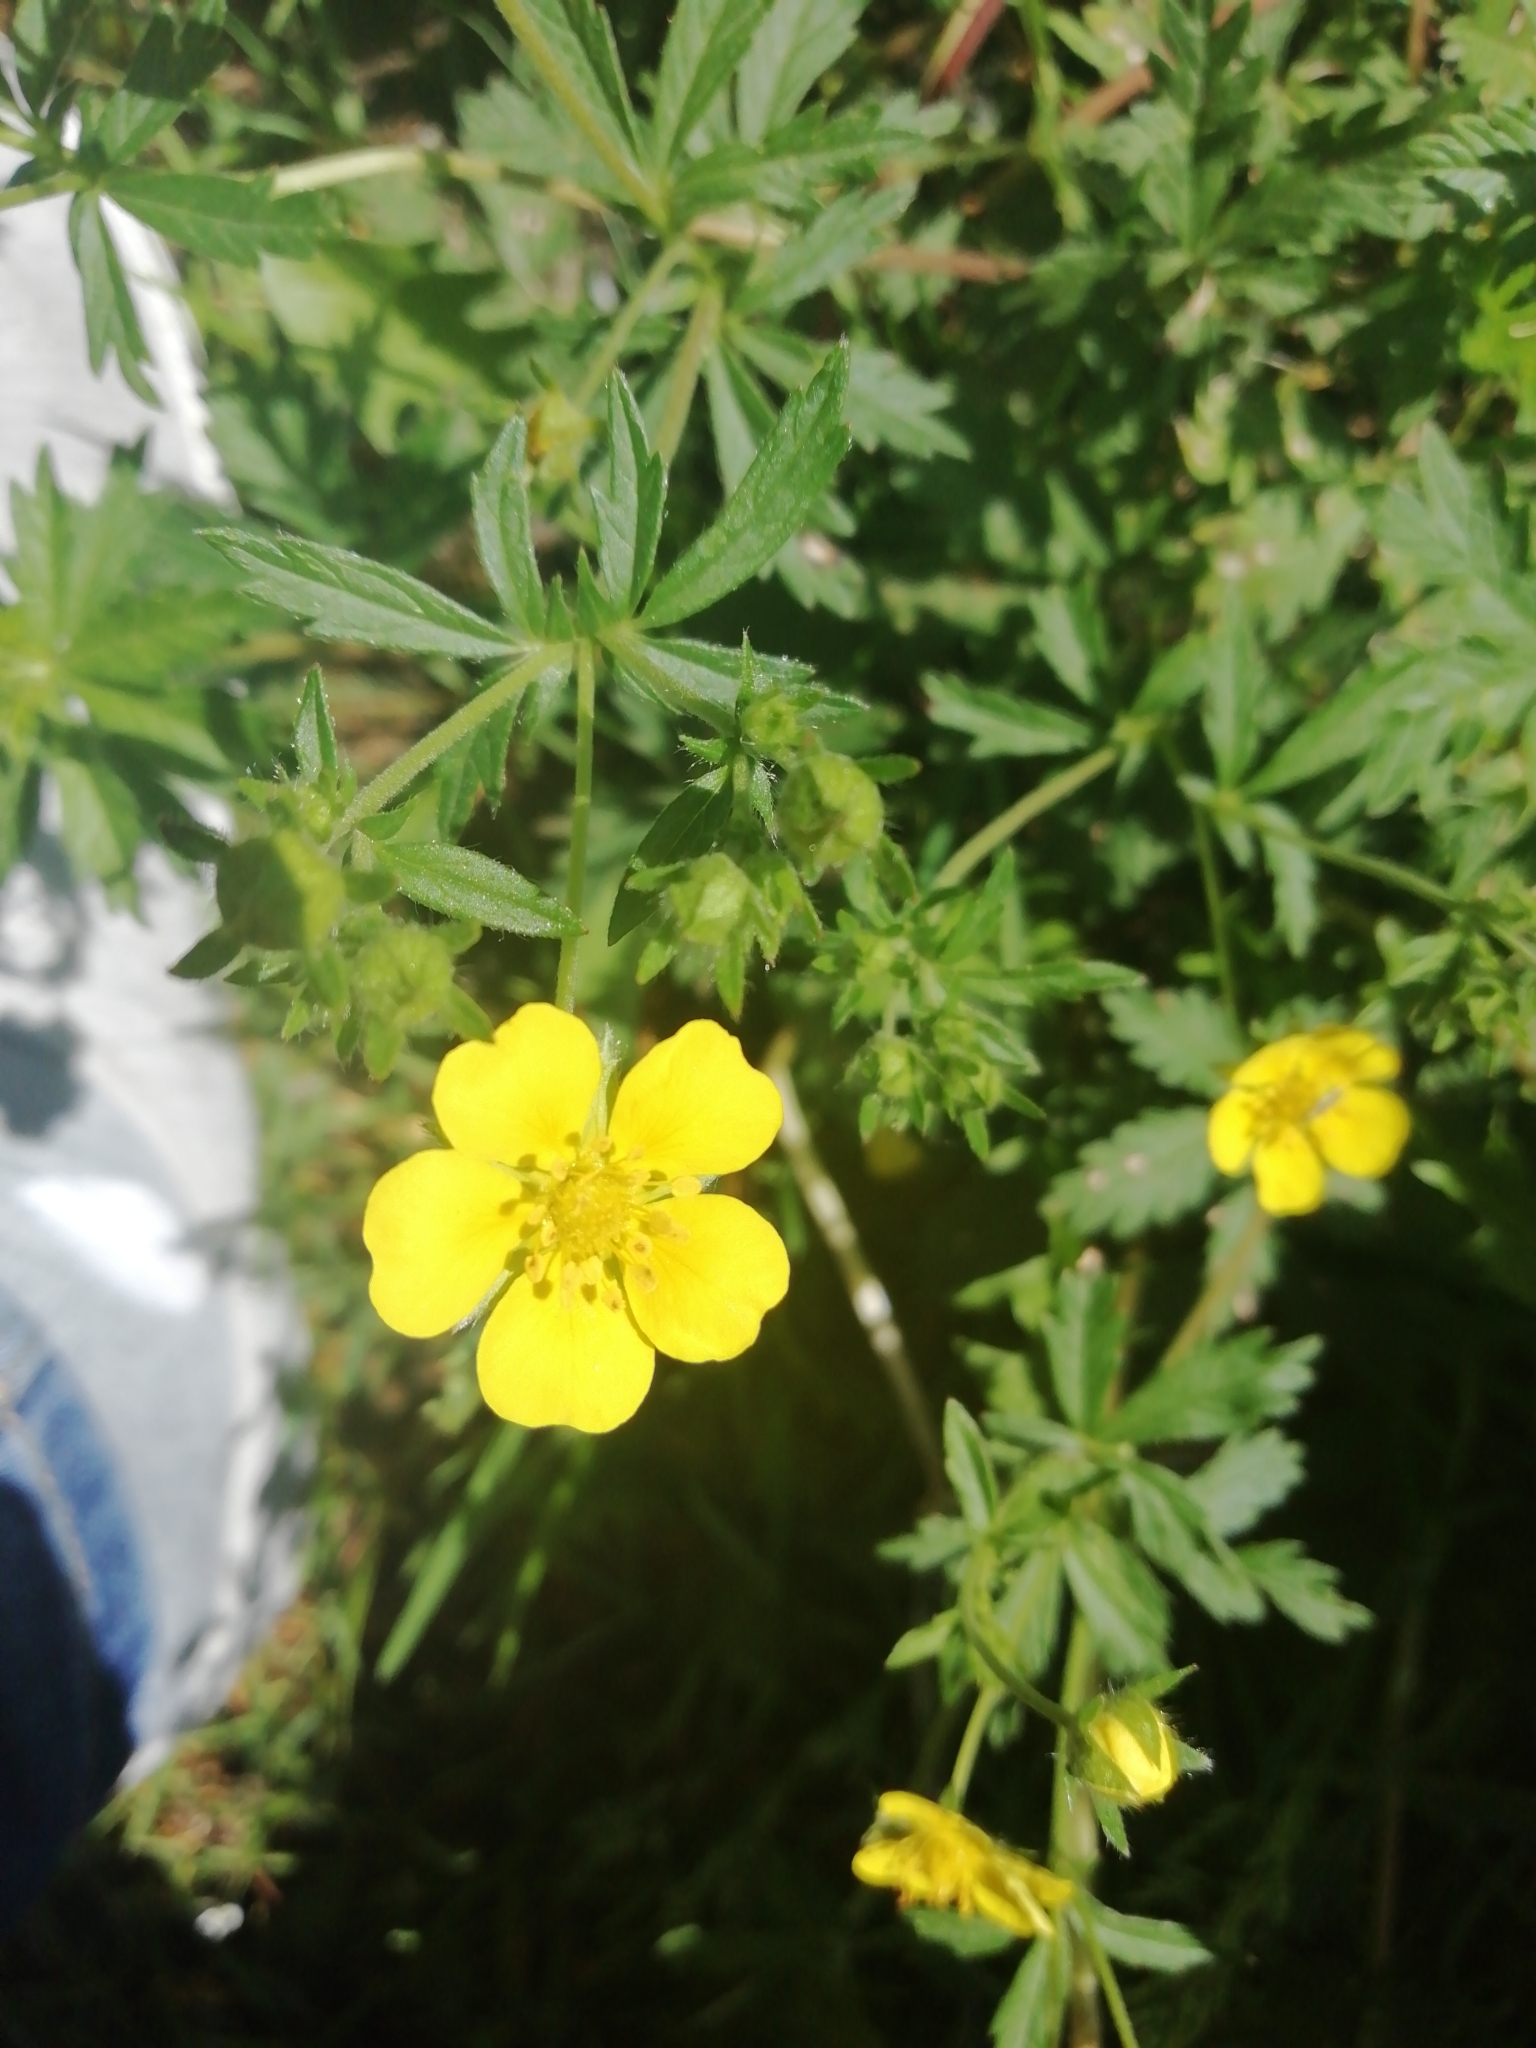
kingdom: Plantae
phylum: Tracheophyta
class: Magnoliopsida
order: Rosales
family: Rosaceae
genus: Potentilla
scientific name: Potentilla argentea
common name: Hoary cinquefoil
